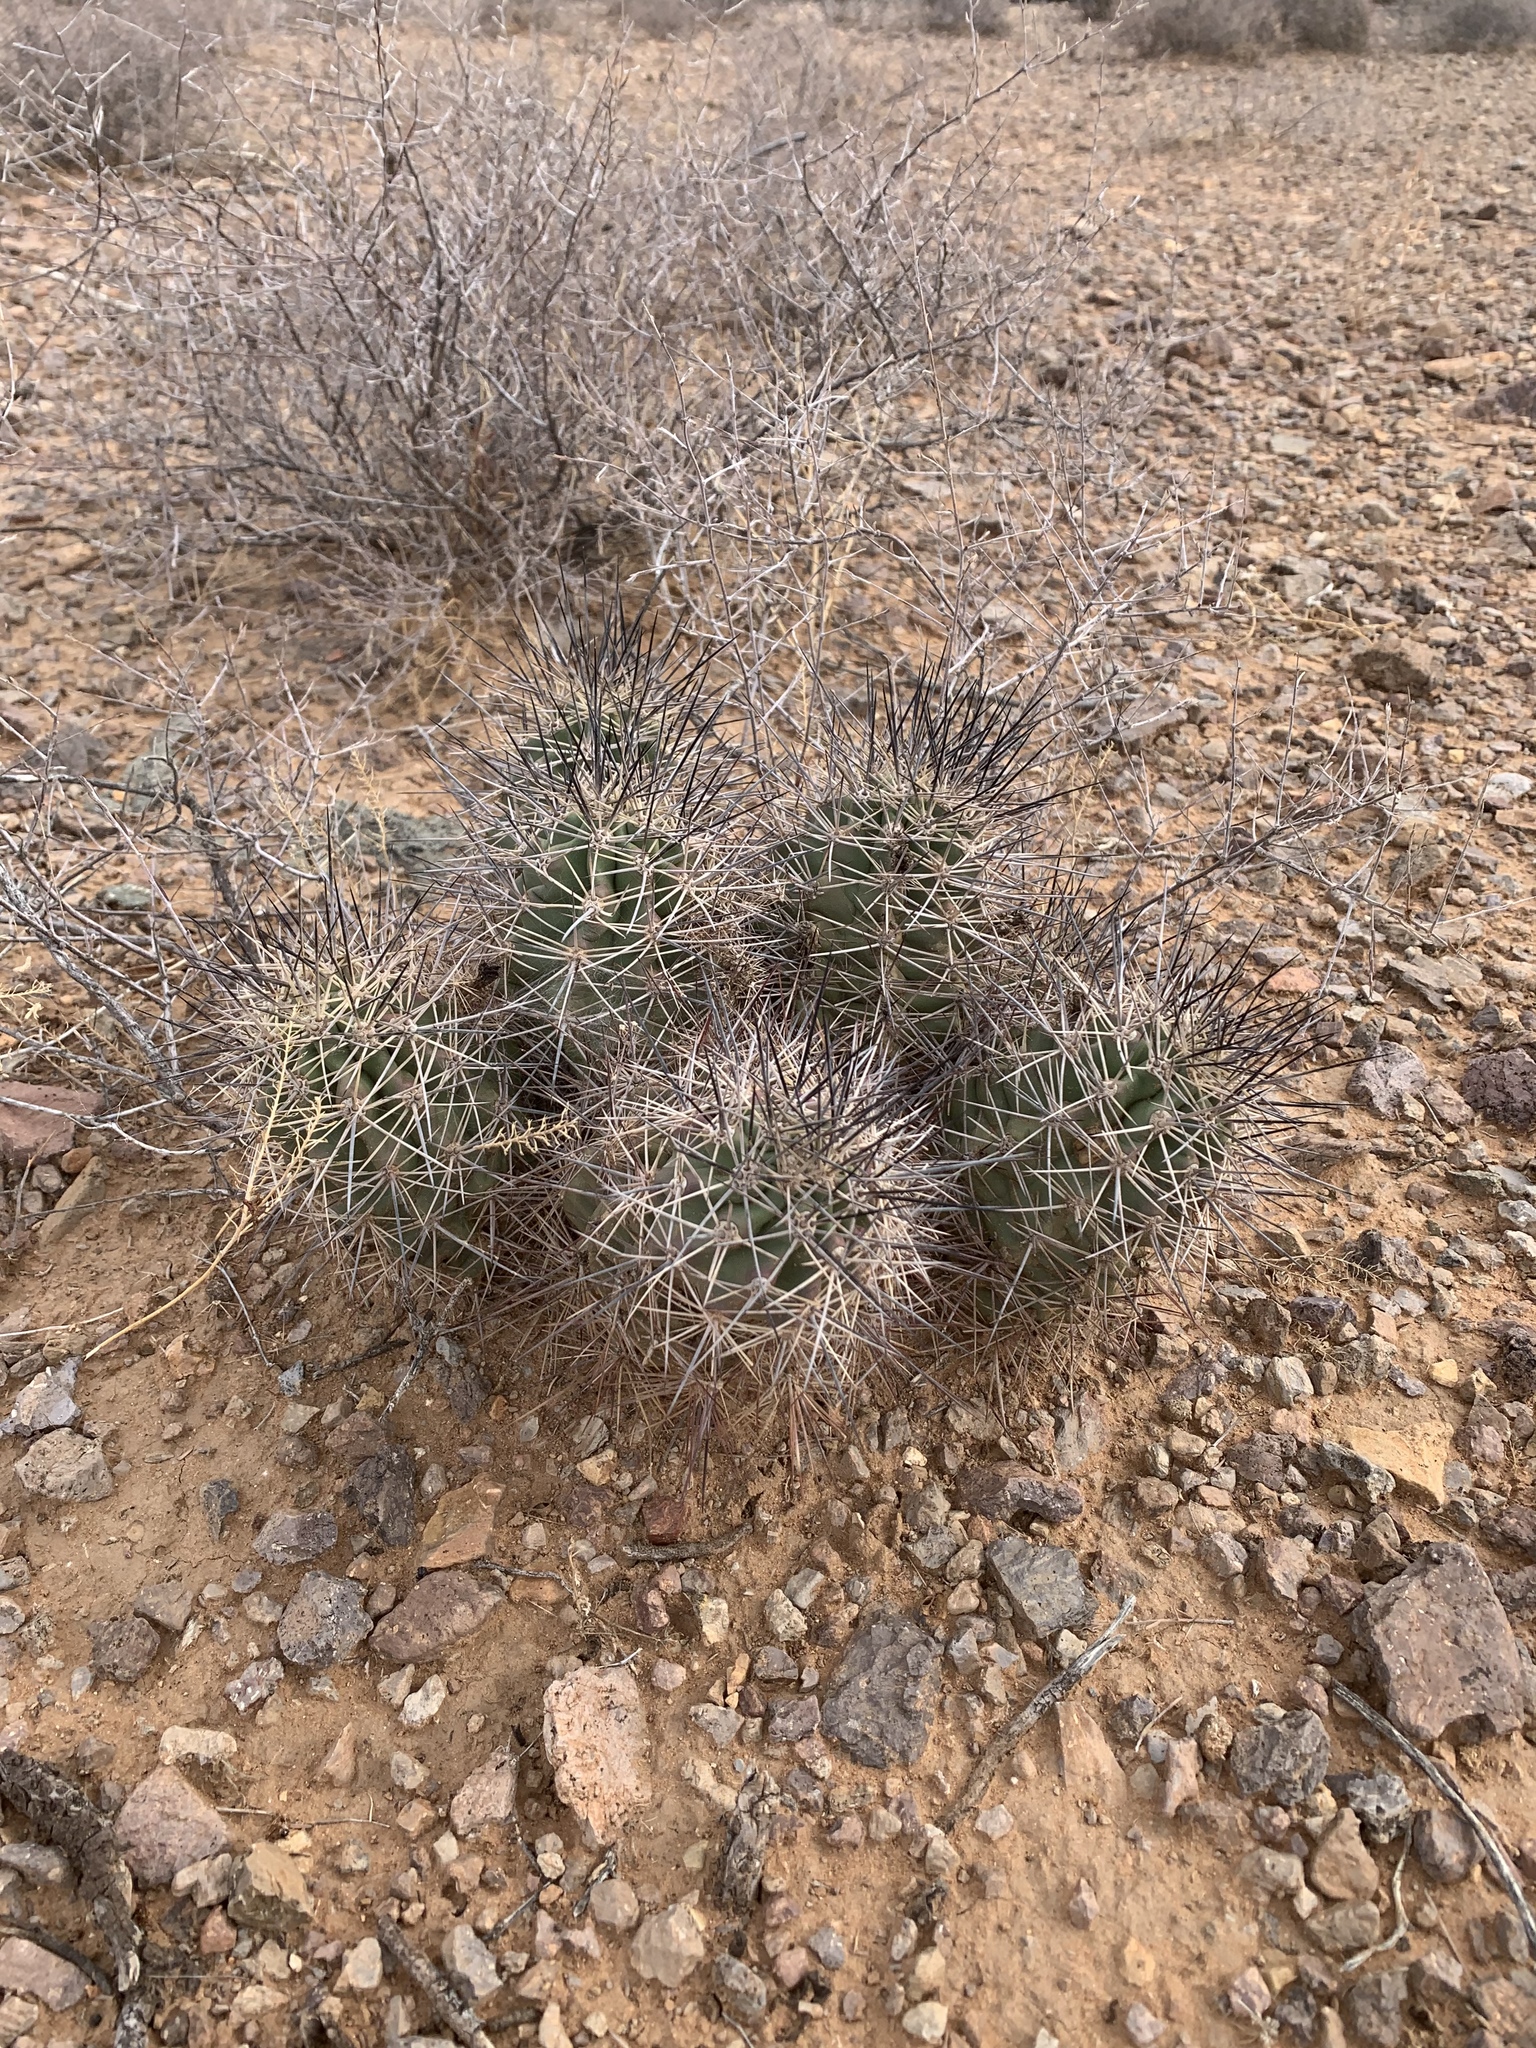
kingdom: Plantae
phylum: Tracheophyta
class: Magnoliopsida
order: Caryophyllales
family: Cactaceae
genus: Echinocereus
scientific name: Echinocereus coccineus
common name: Scarlet hedgehog cactus
